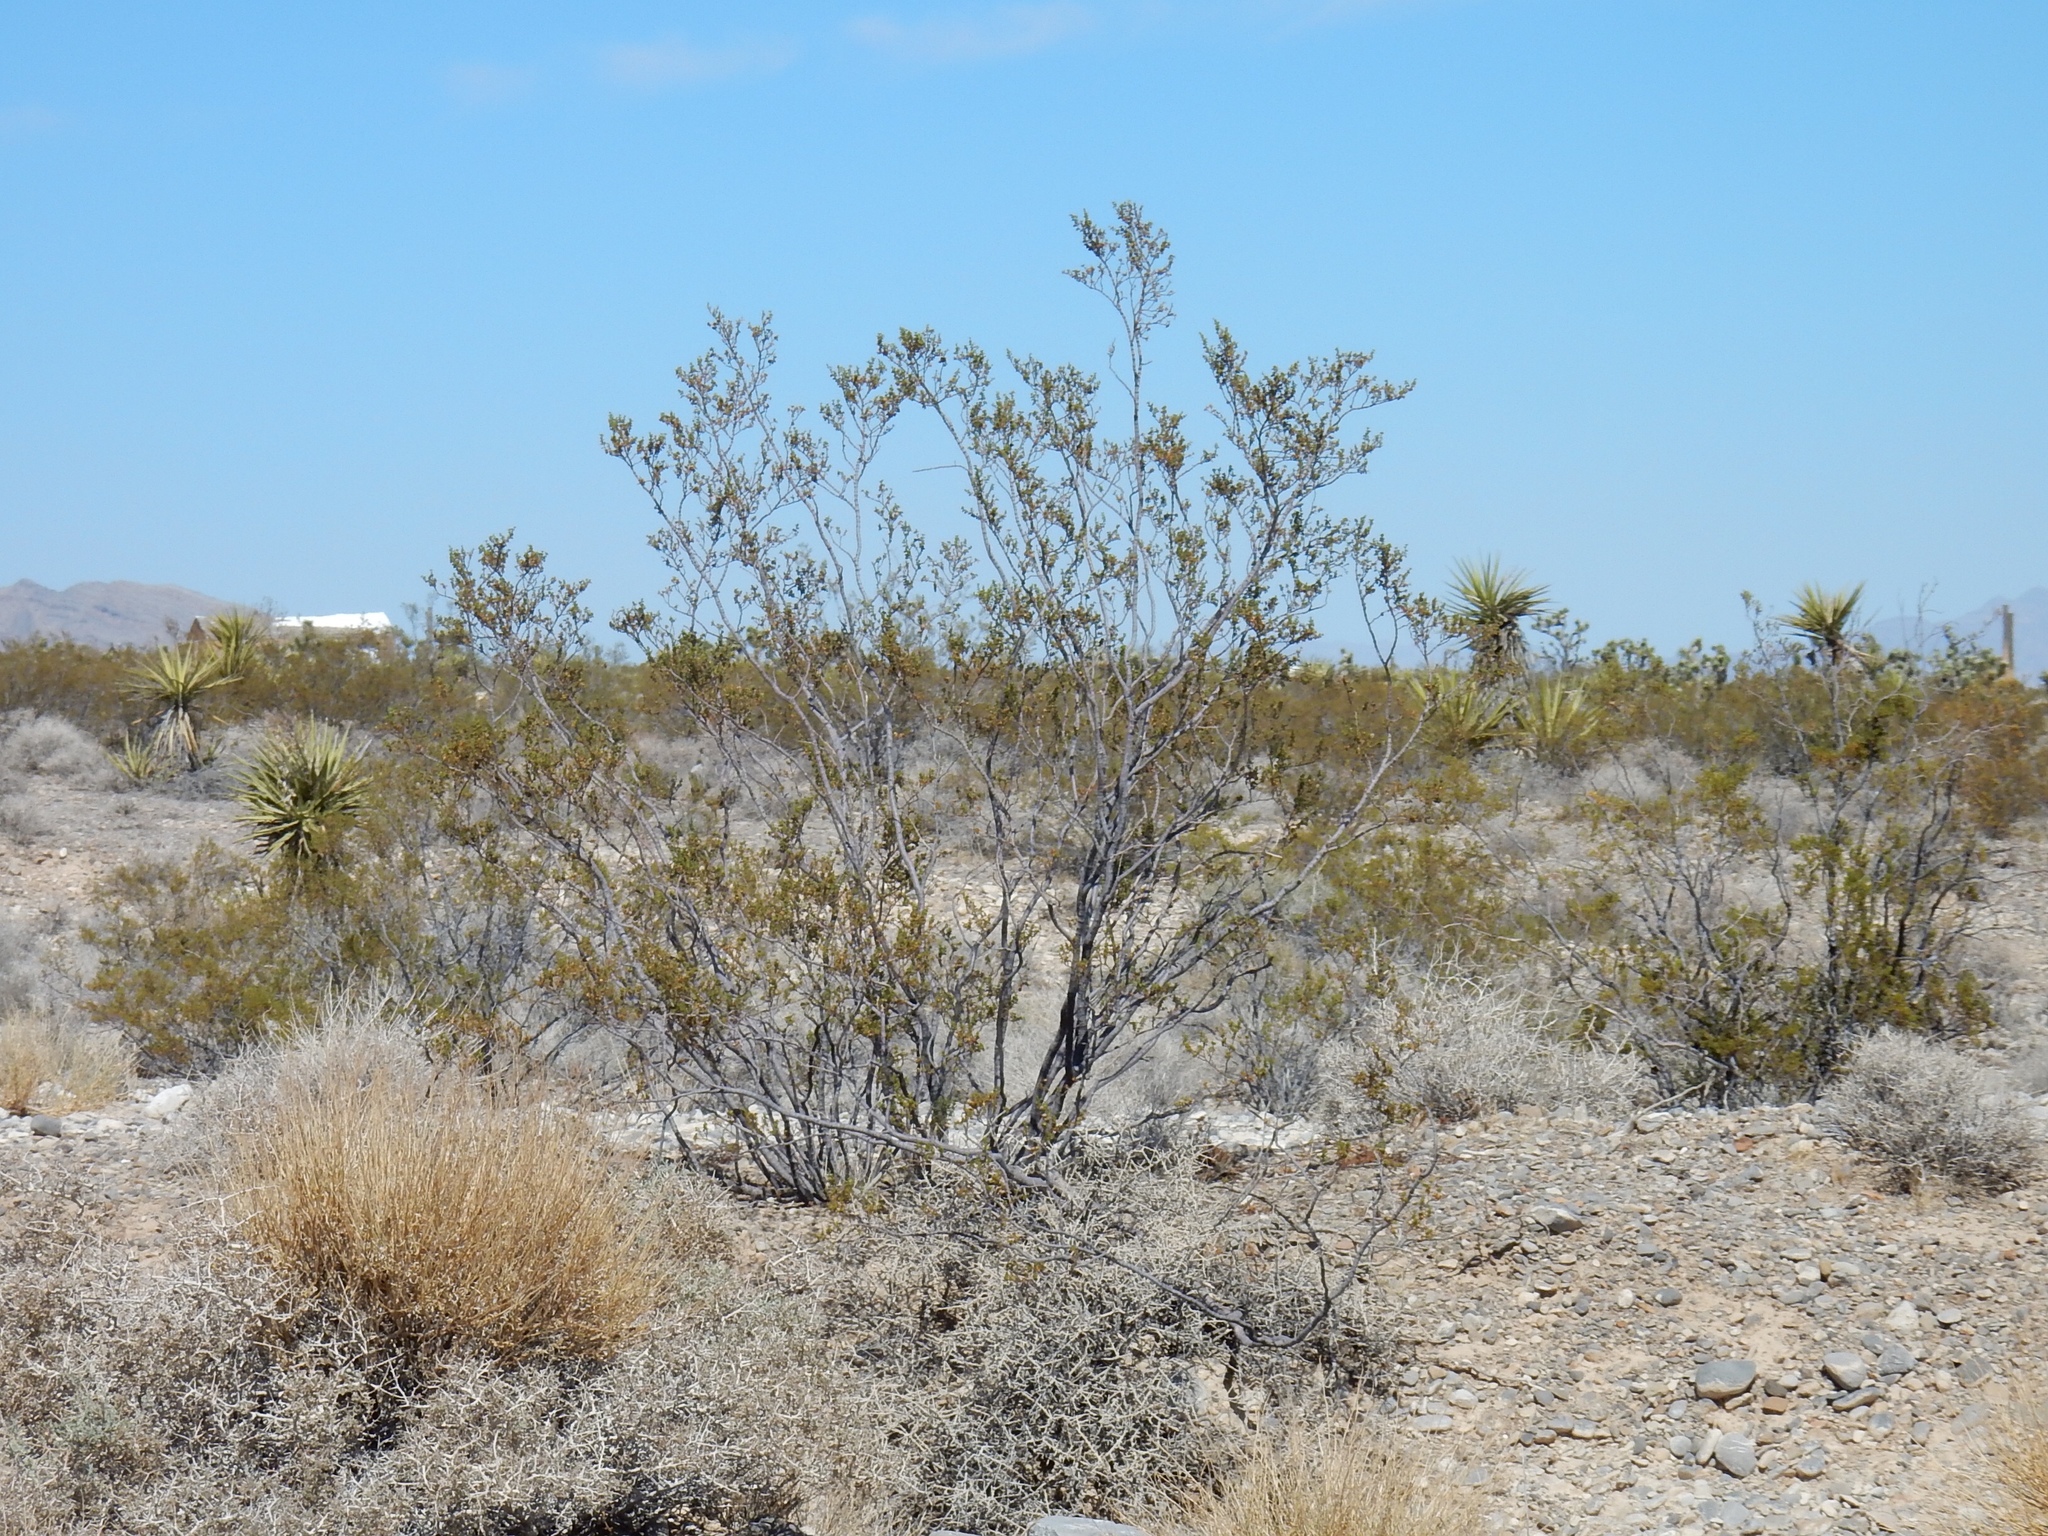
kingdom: Plantae
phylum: Tracheophyta
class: Magnoliopsida
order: Zygophyllales
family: Zygophyllaceae
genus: Larrea
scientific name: Larrea tridentata
